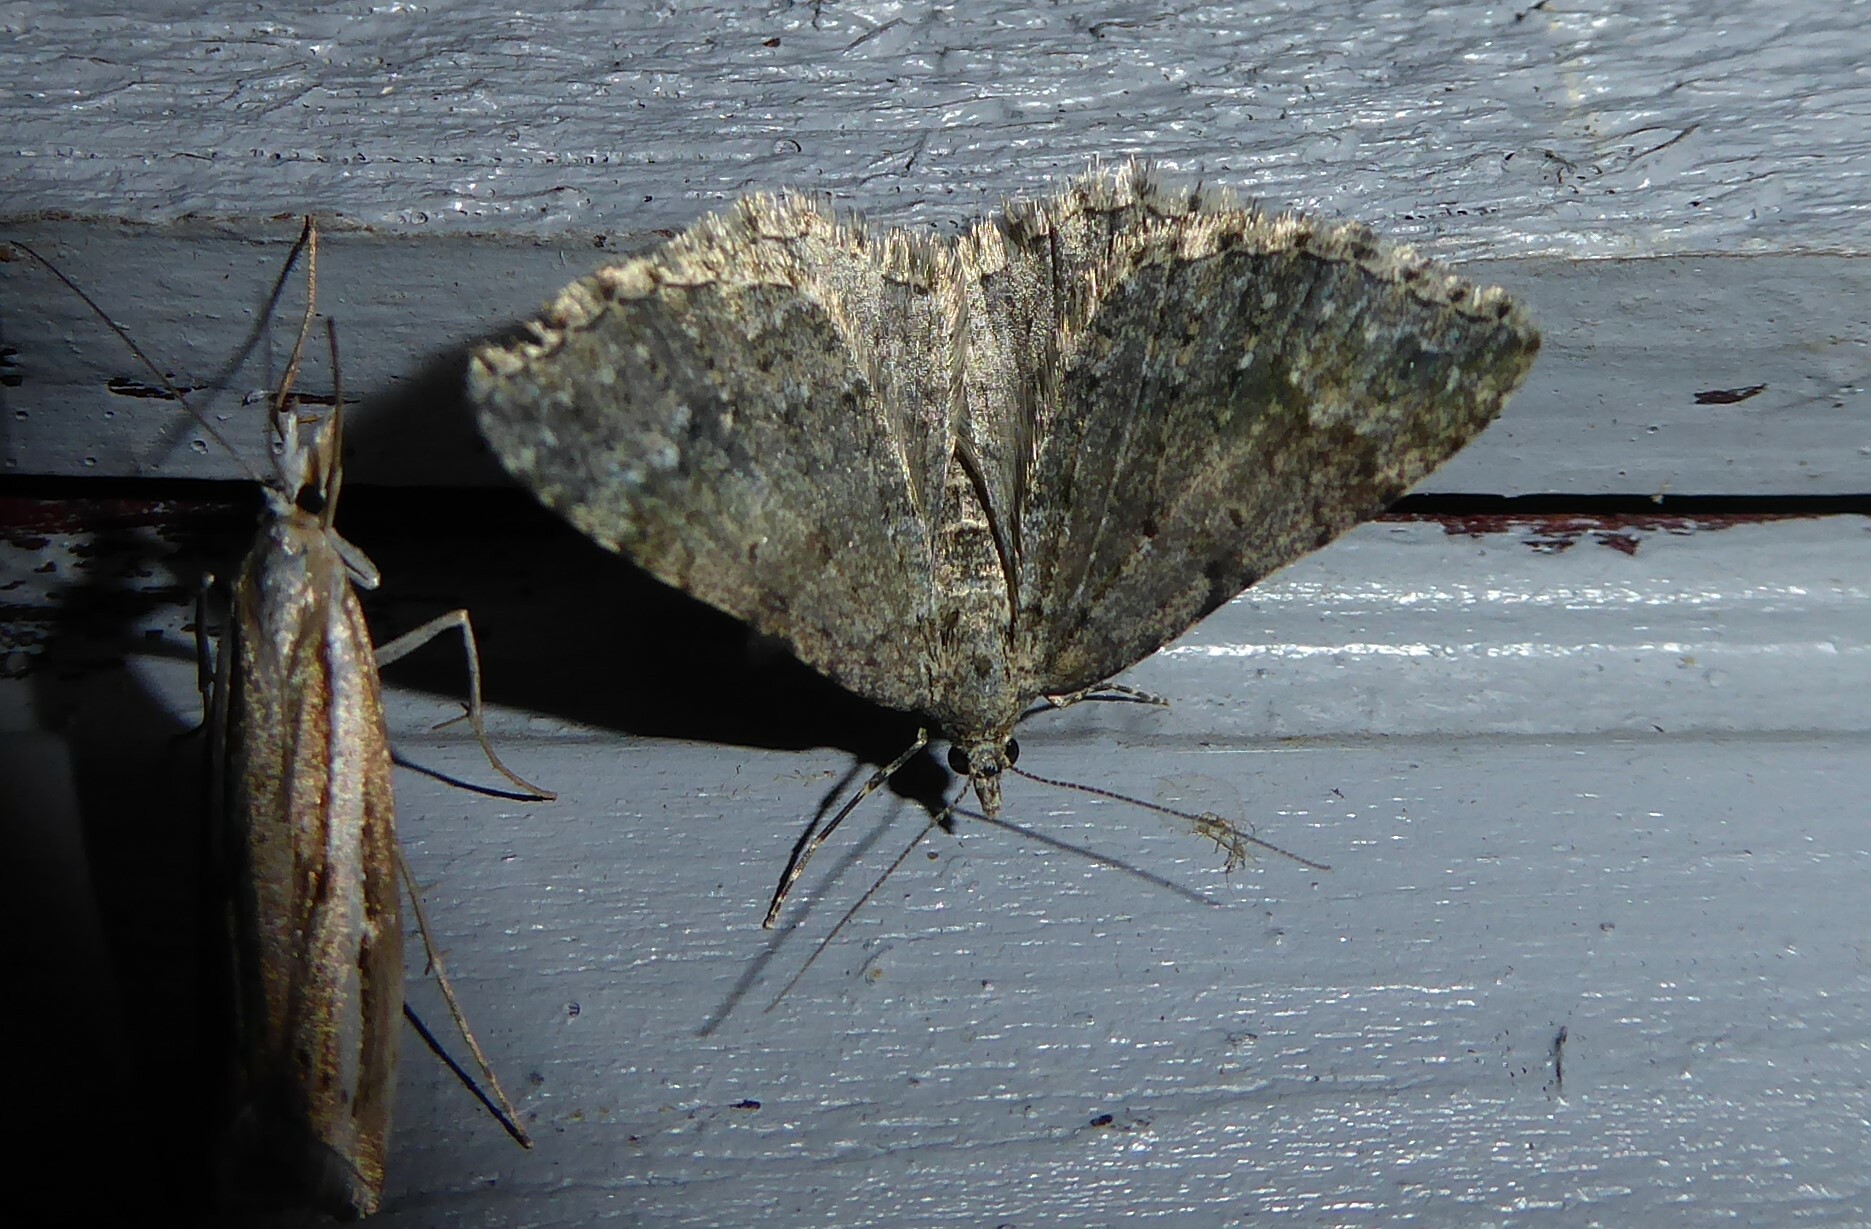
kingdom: Animalia
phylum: Arthropoda
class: Insecta
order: Lepidoptera
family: Geometridae
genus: Helastia
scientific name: Helastia corcularia
